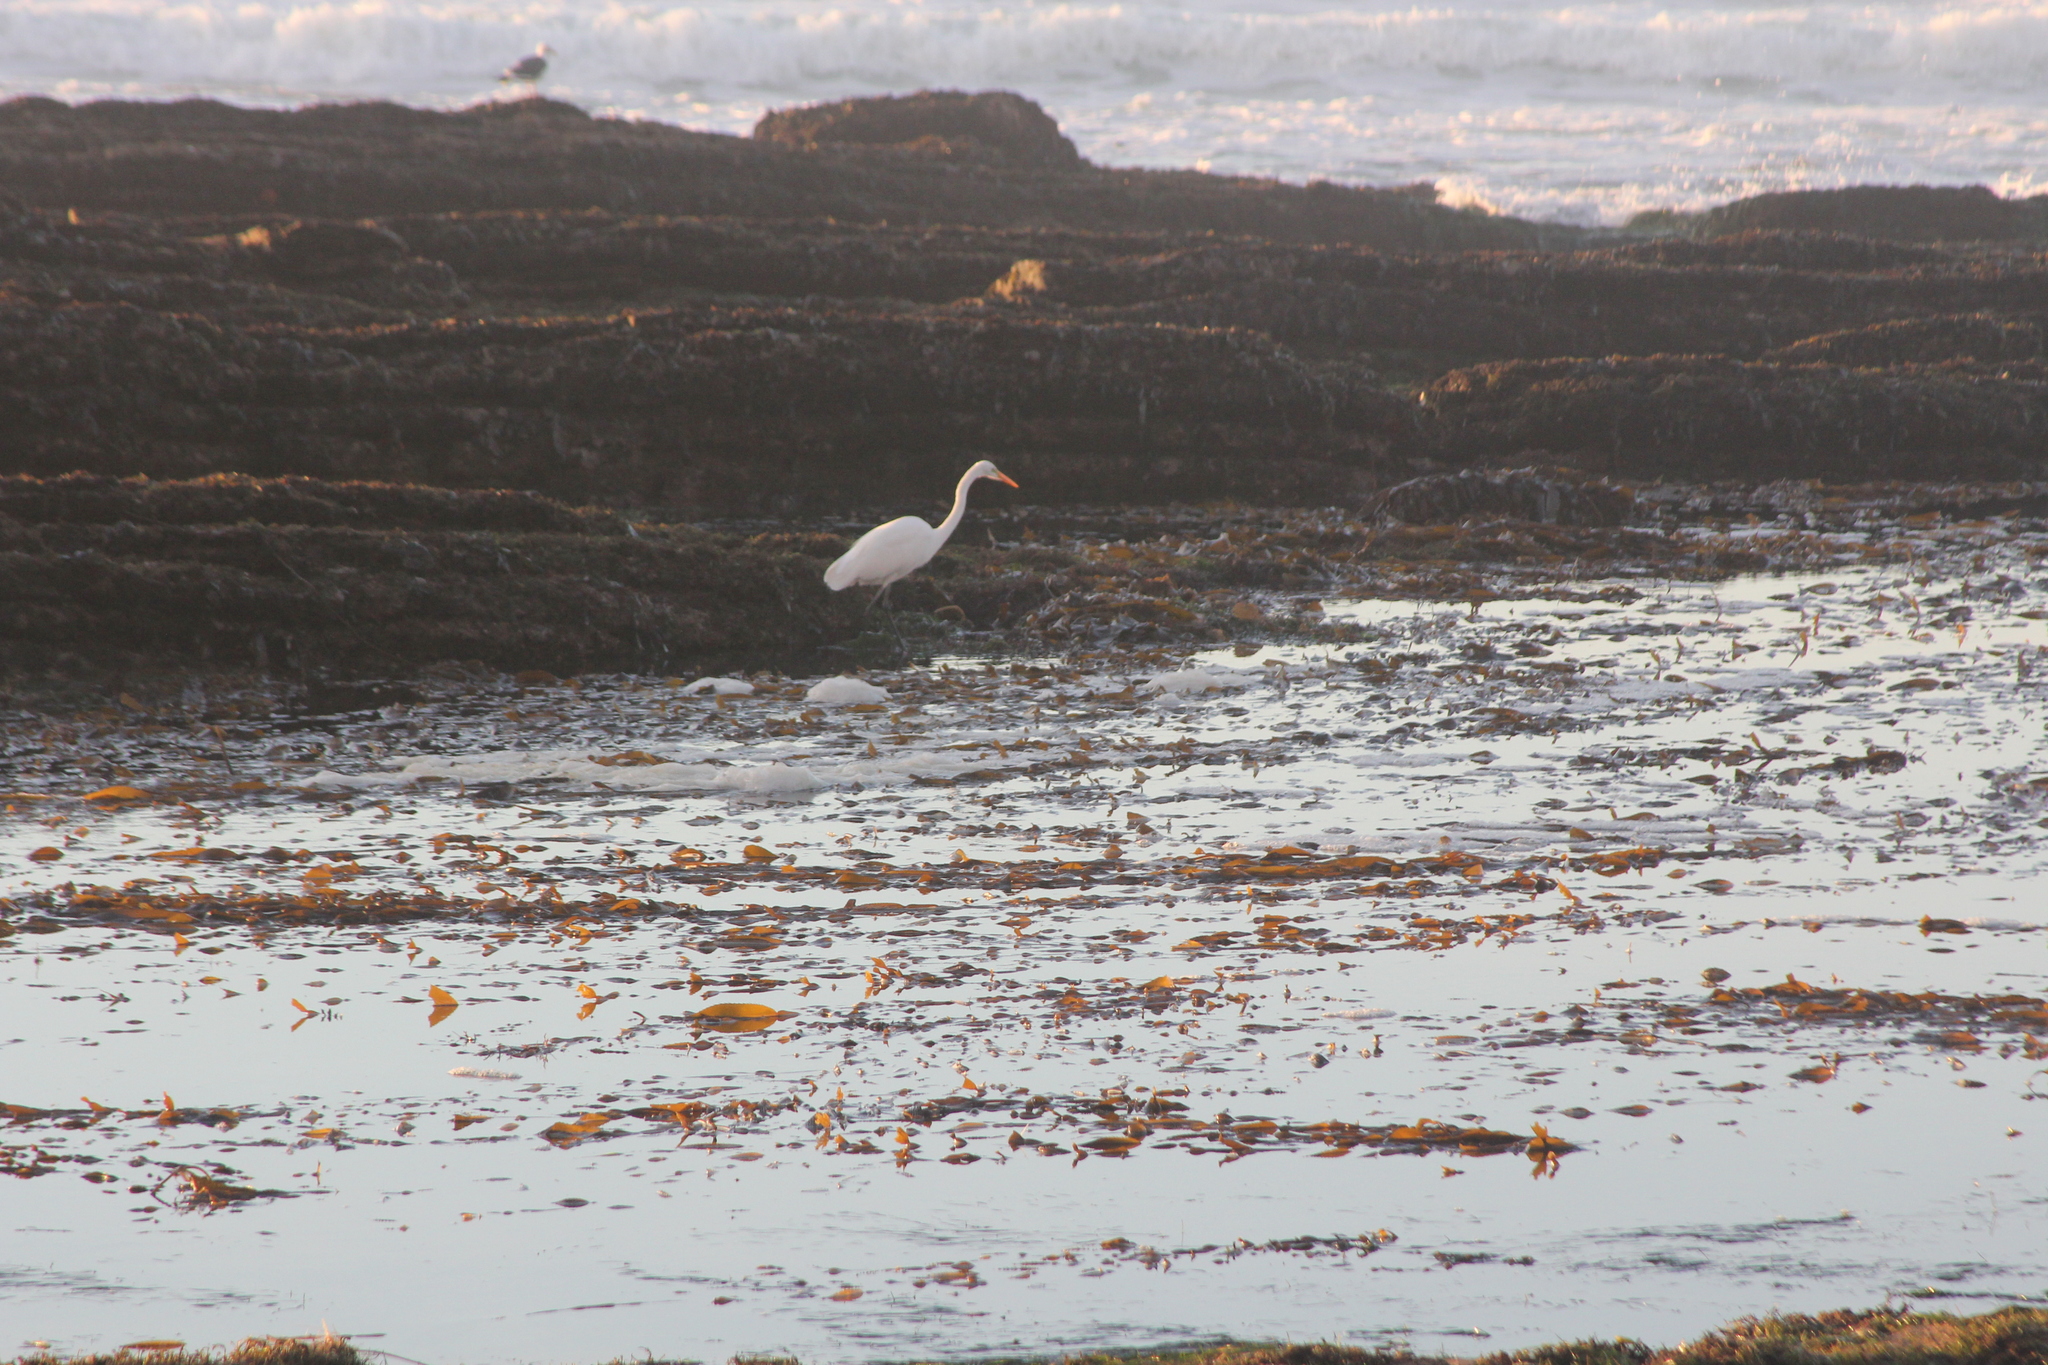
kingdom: Animalia
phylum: Chordata
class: Aves
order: Pelecaniformes
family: Ardeidae
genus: Ardea
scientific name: Ardea alba
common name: Great egret
